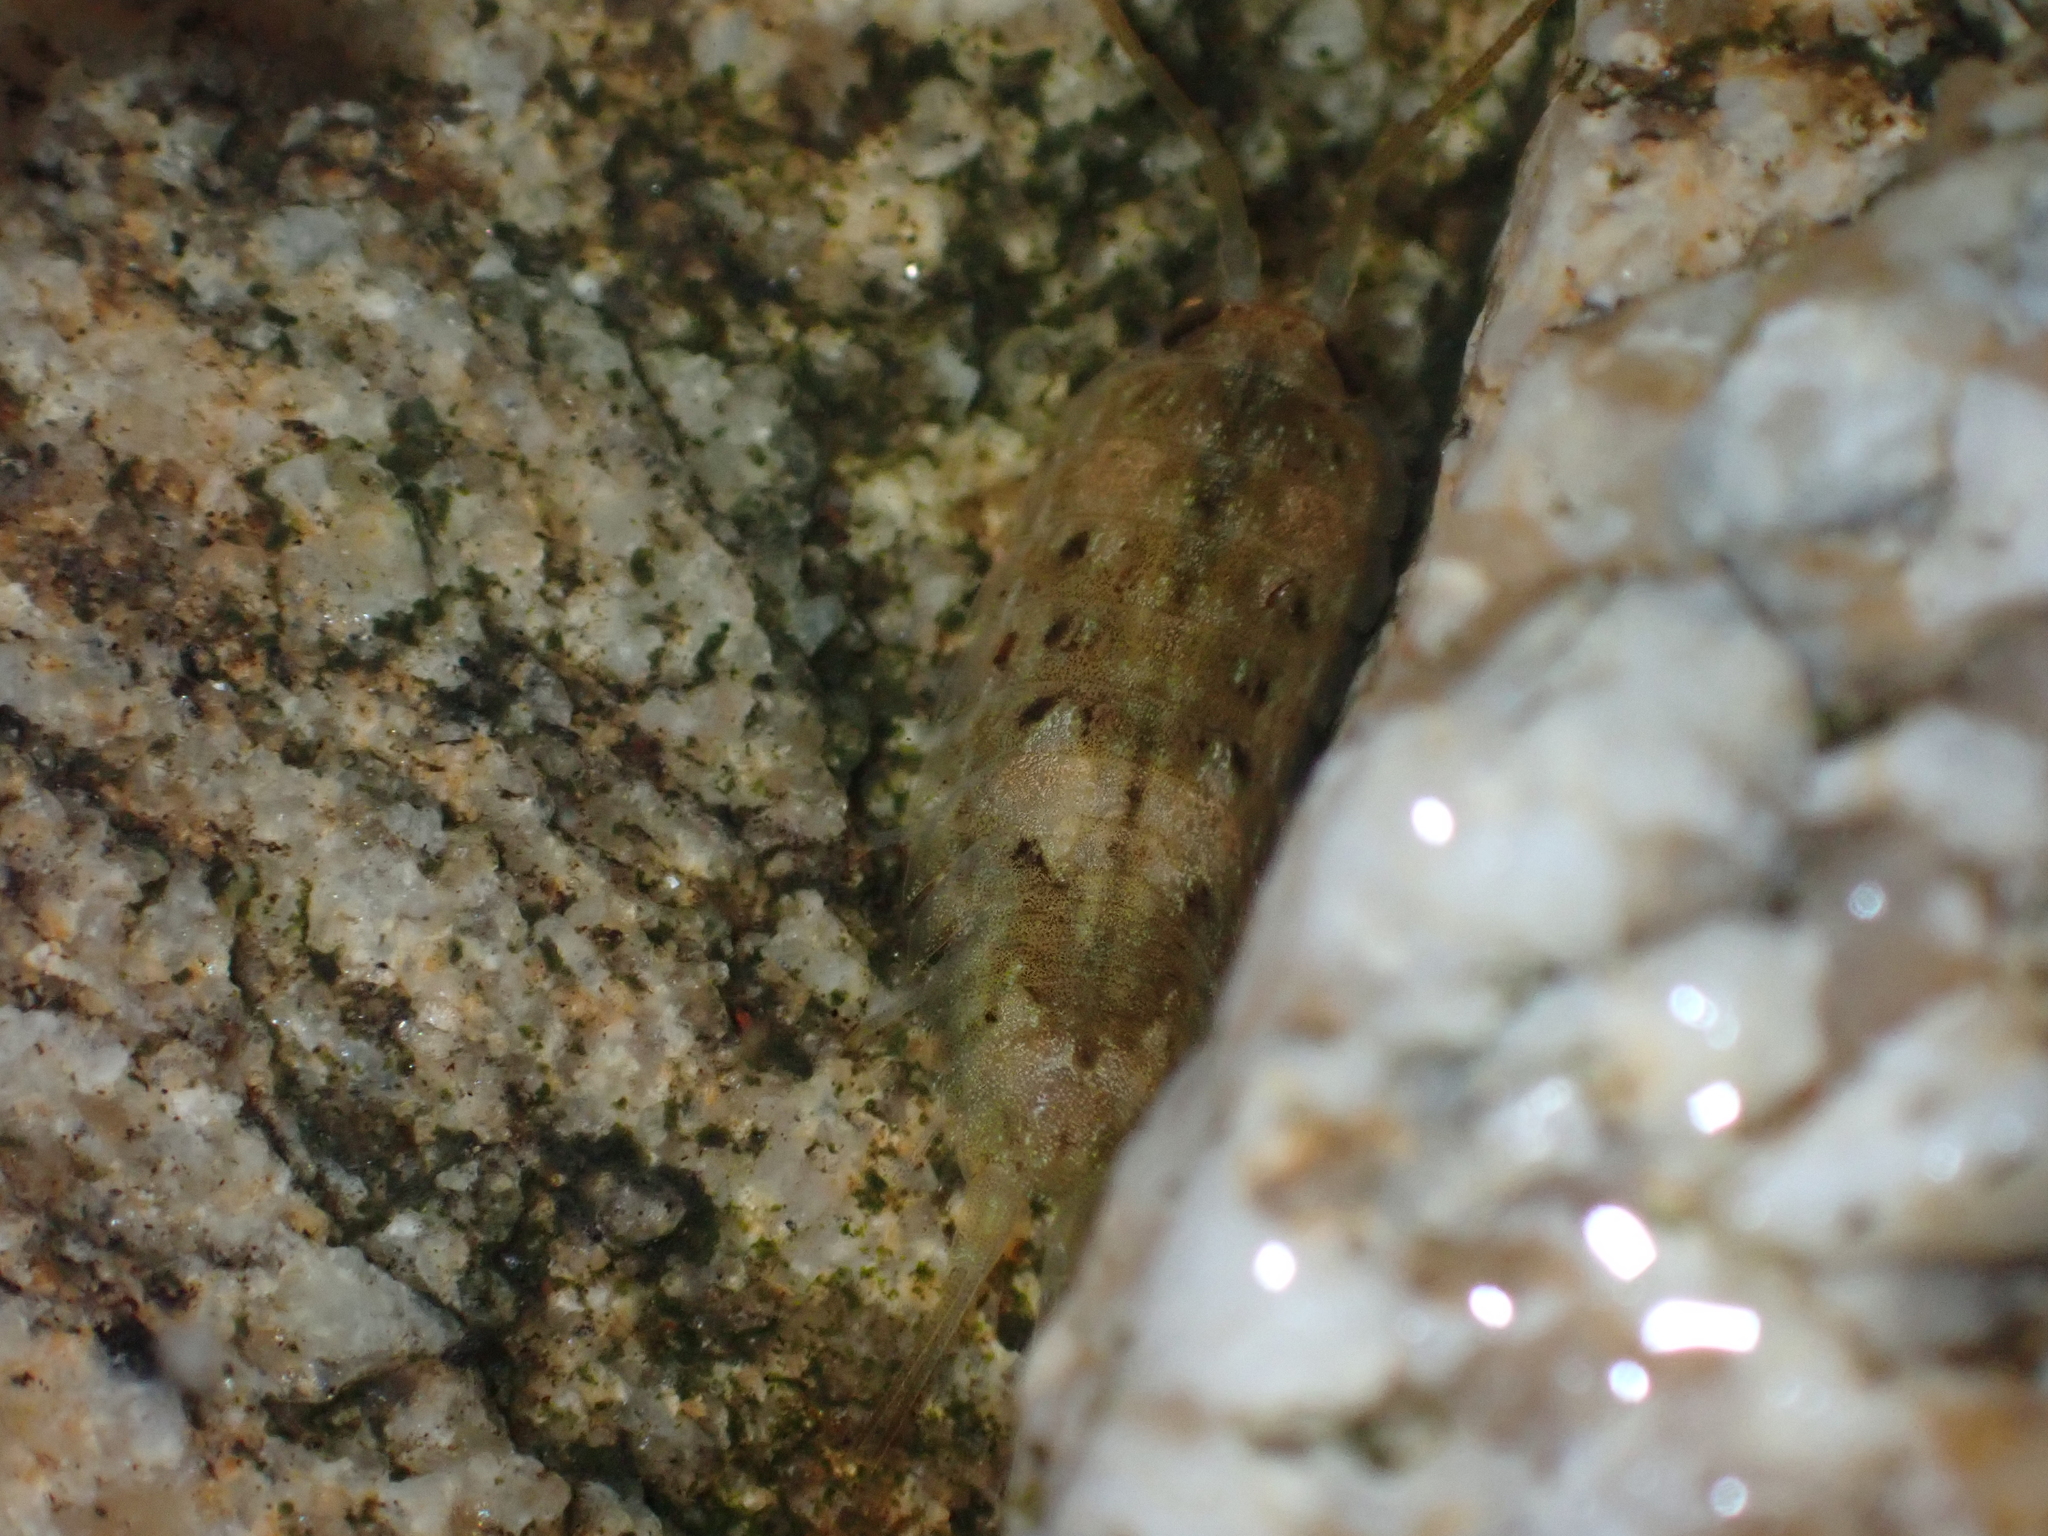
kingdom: Animalia
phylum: Arthropoda
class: Malacostraca
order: Isopoda
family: Ligiidae
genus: Ligia
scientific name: Ligia oceanica
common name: Sea slater
